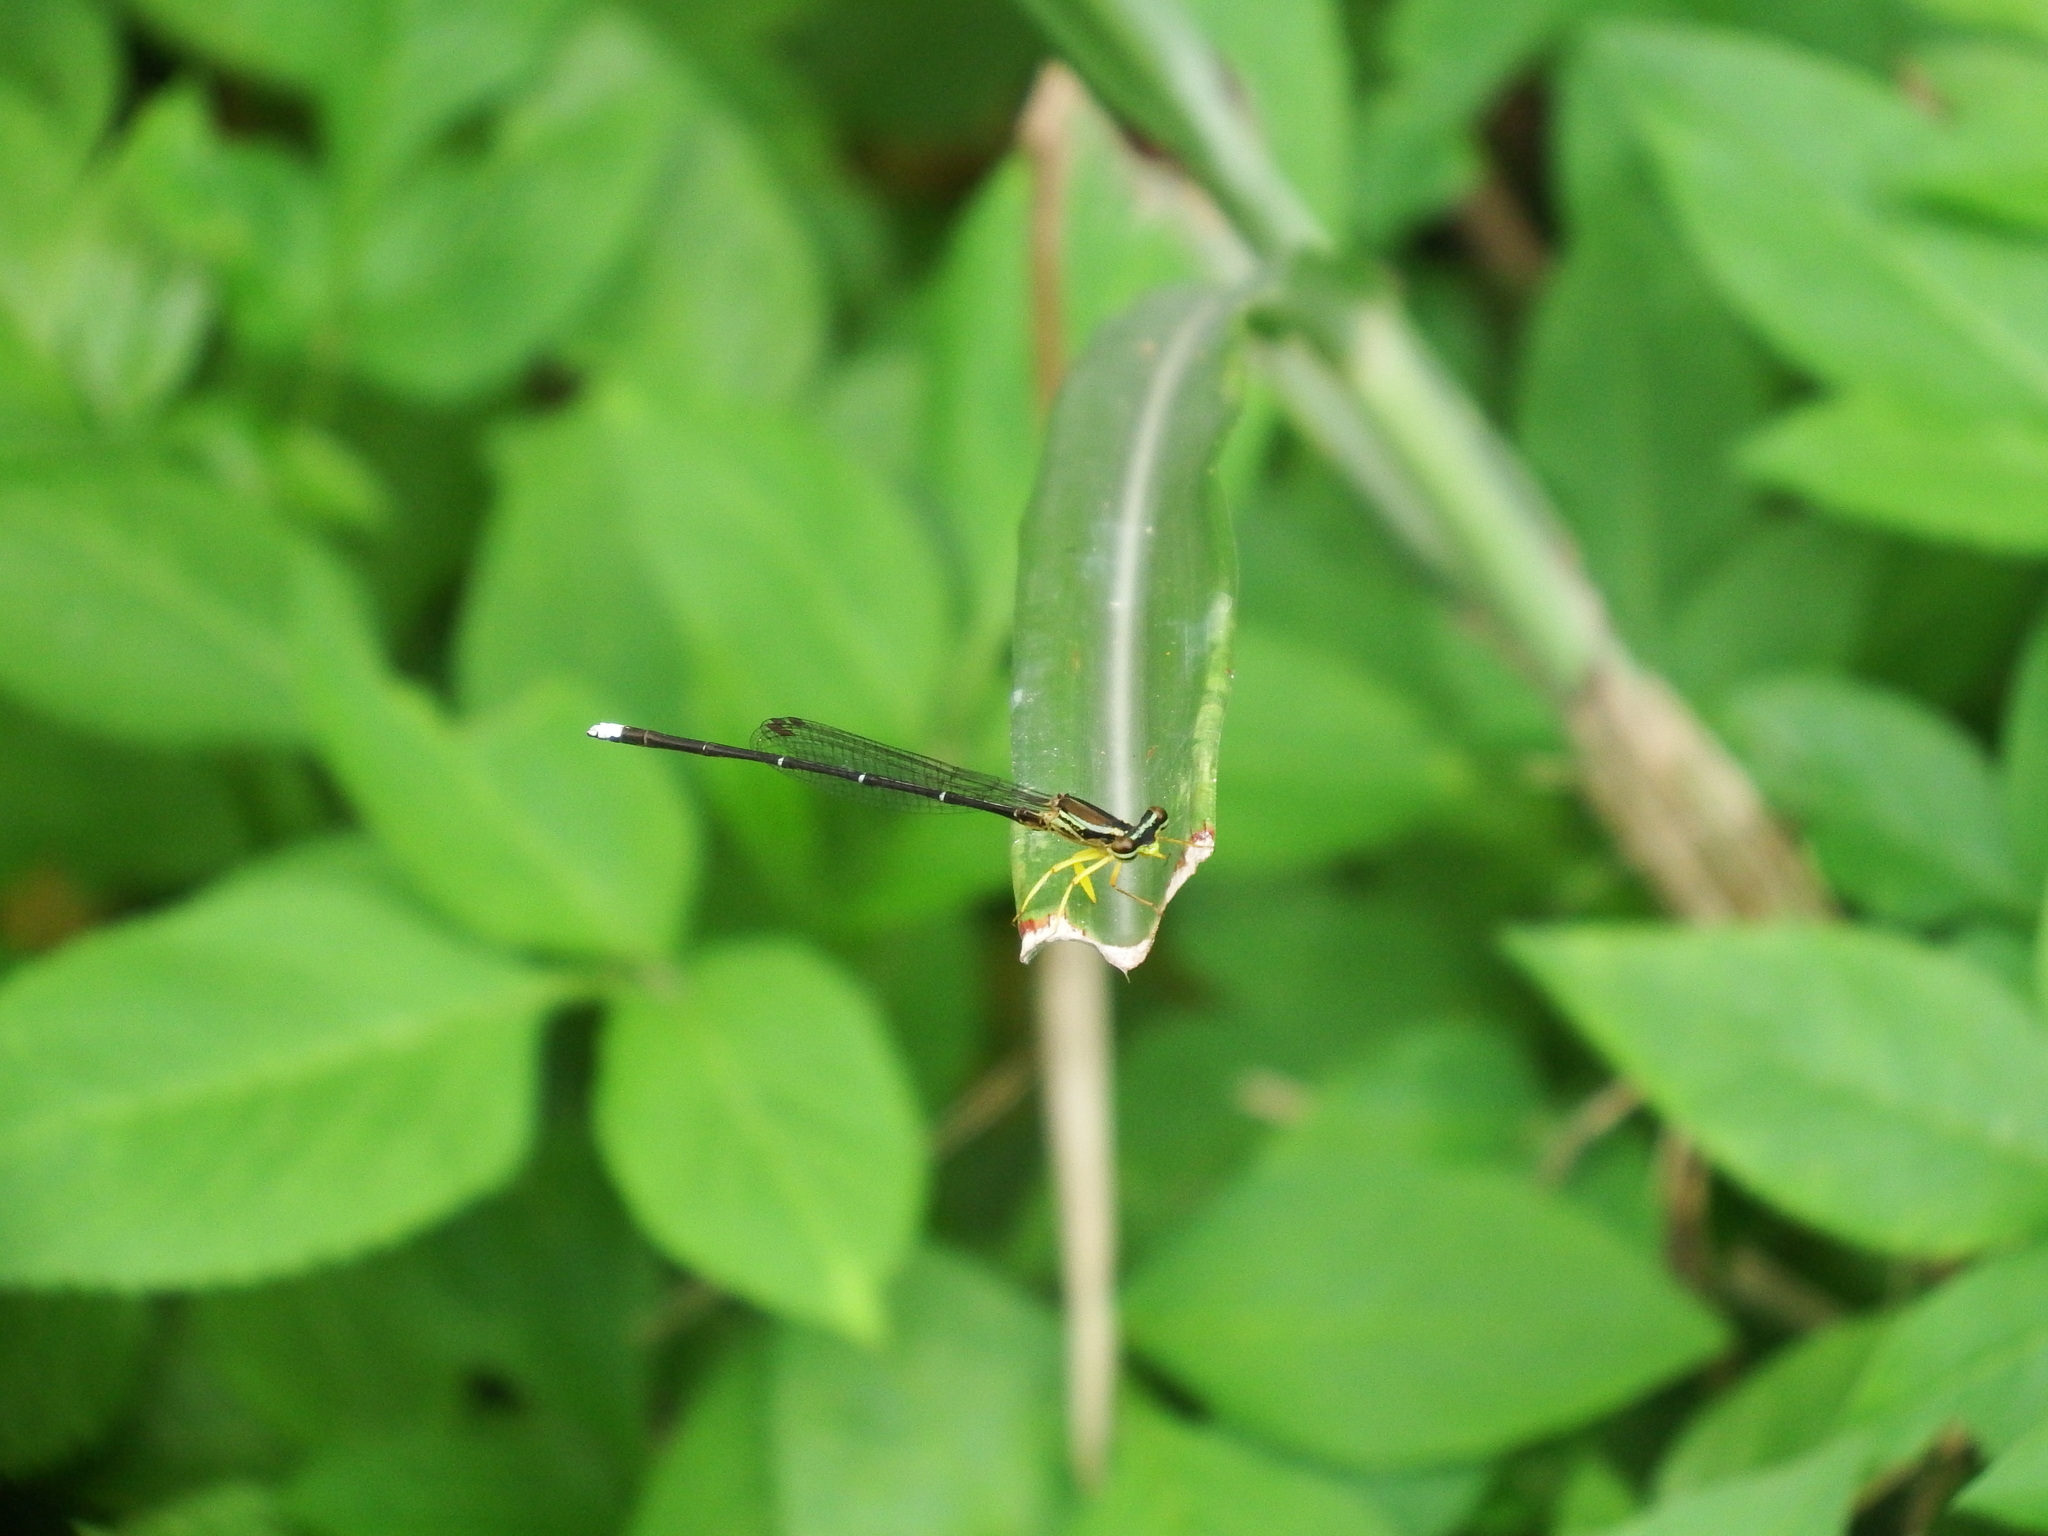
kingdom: Animalia
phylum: Arthropoda
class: Insecta
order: Odonata
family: Platycnemididae
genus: Copera
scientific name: Copera marginipes
